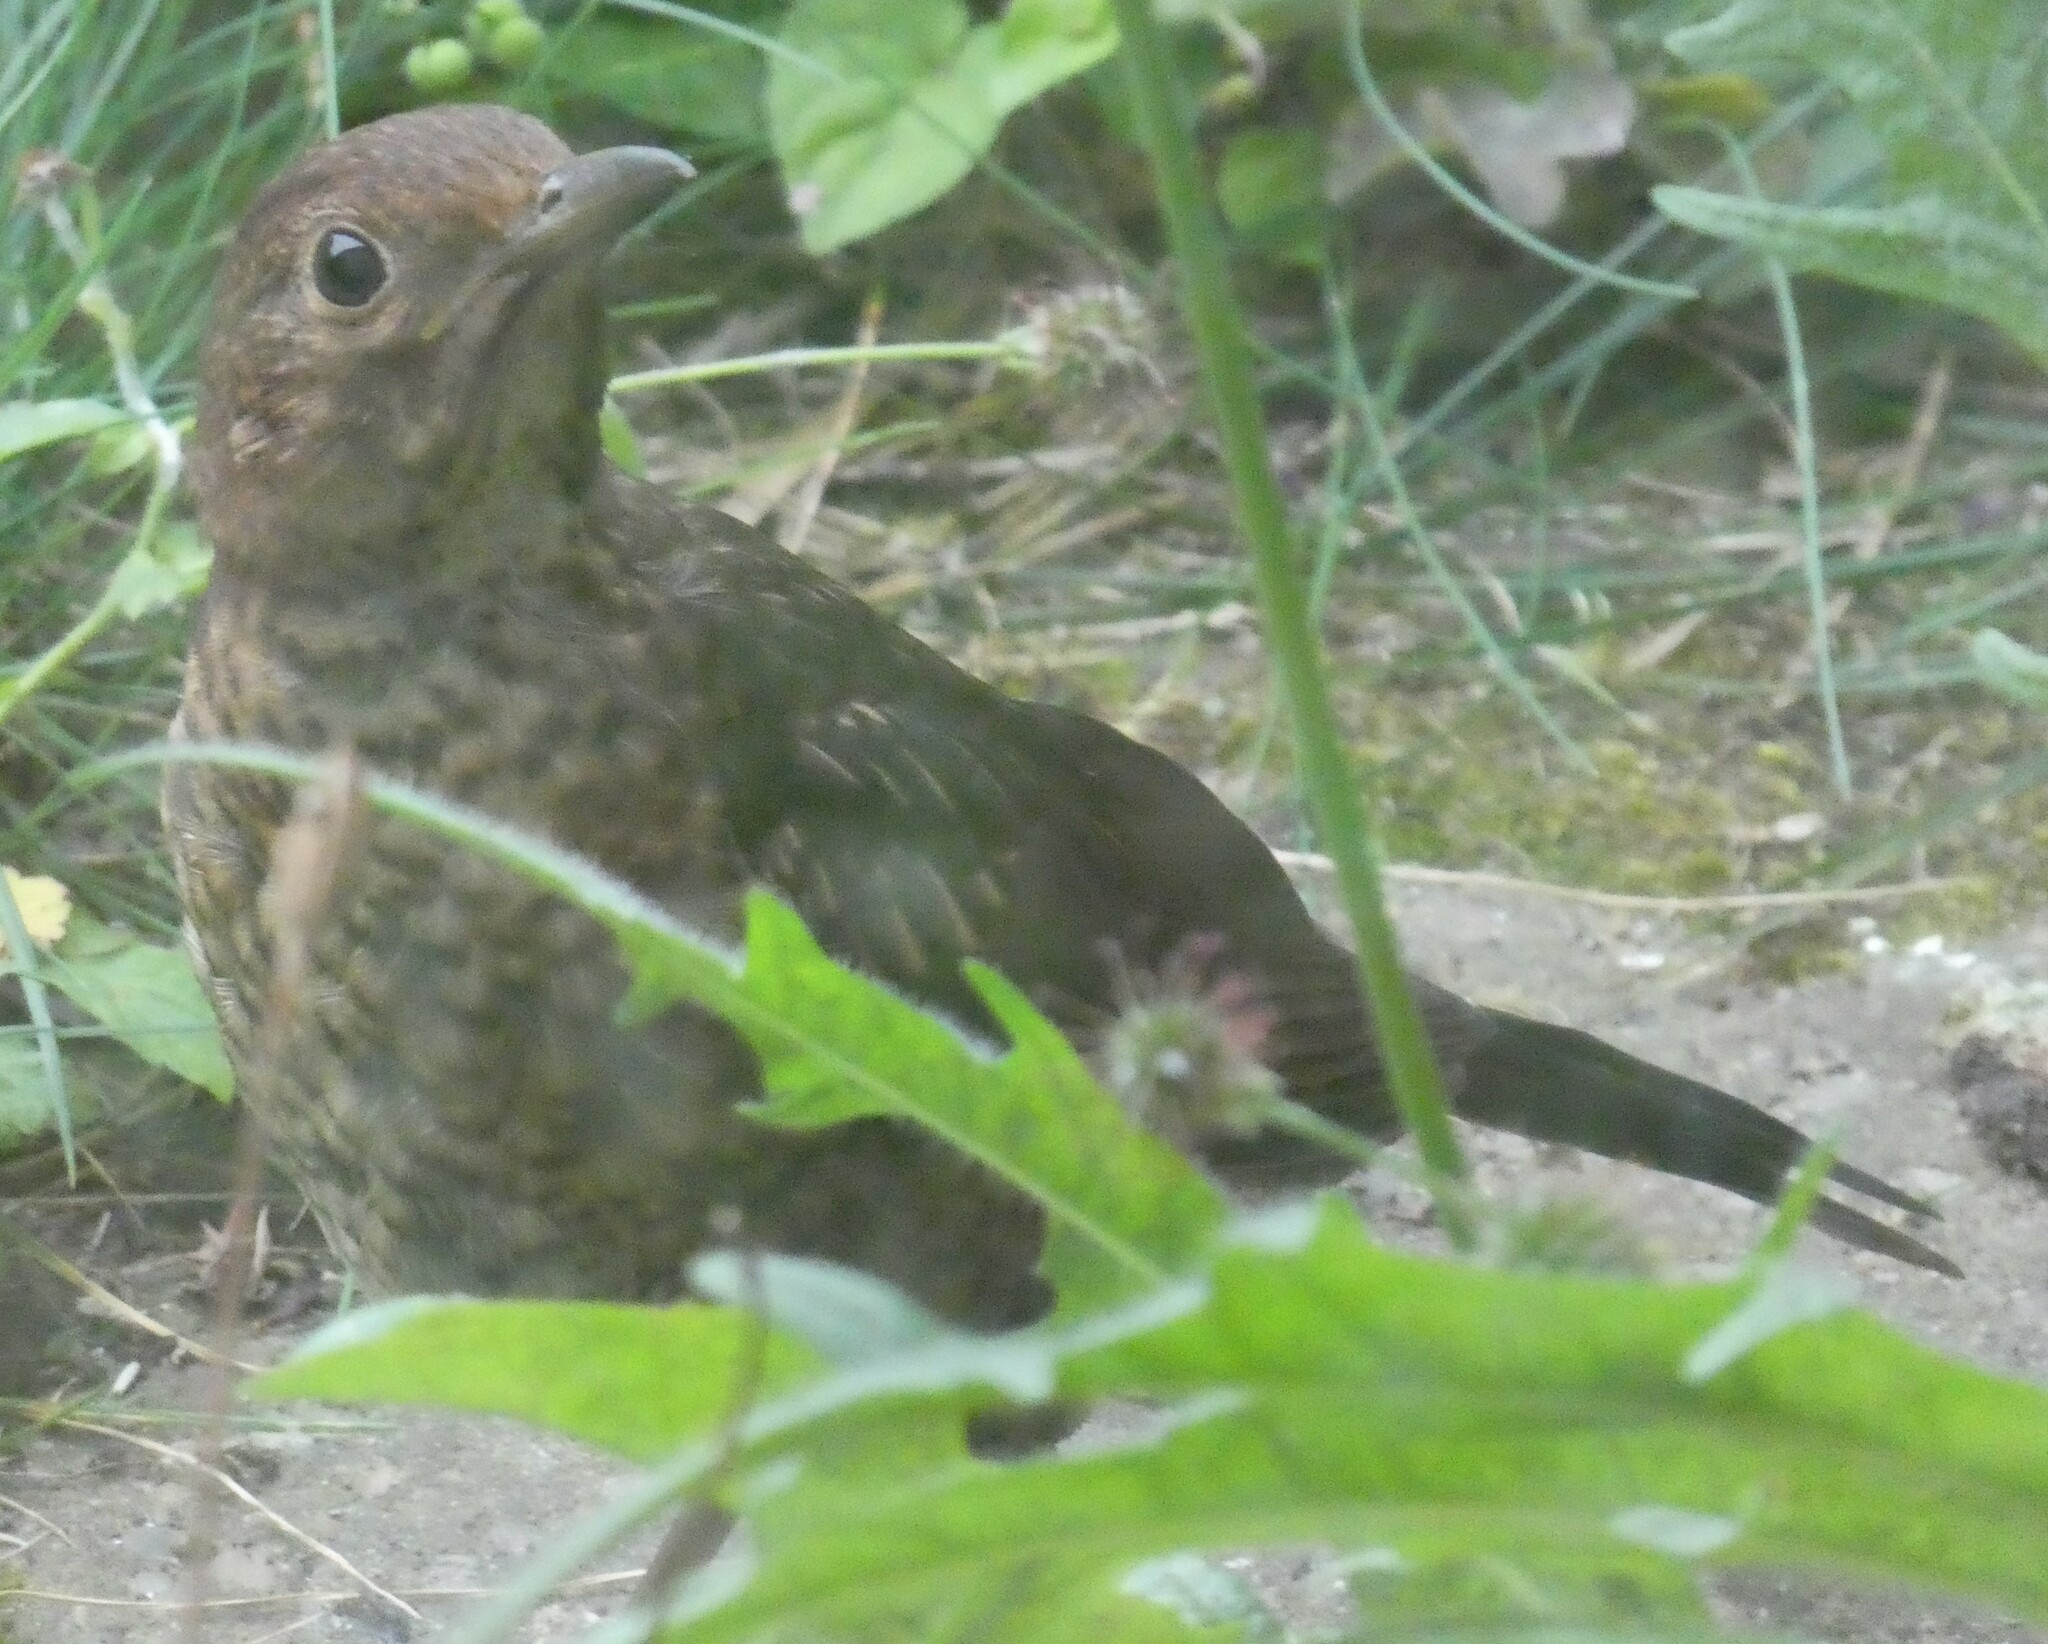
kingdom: Animalia
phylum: Chordata
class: Aves
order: Passeriformes
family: Turdidae
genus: Turdus
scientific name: Turdus merula
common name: Common blackbird
